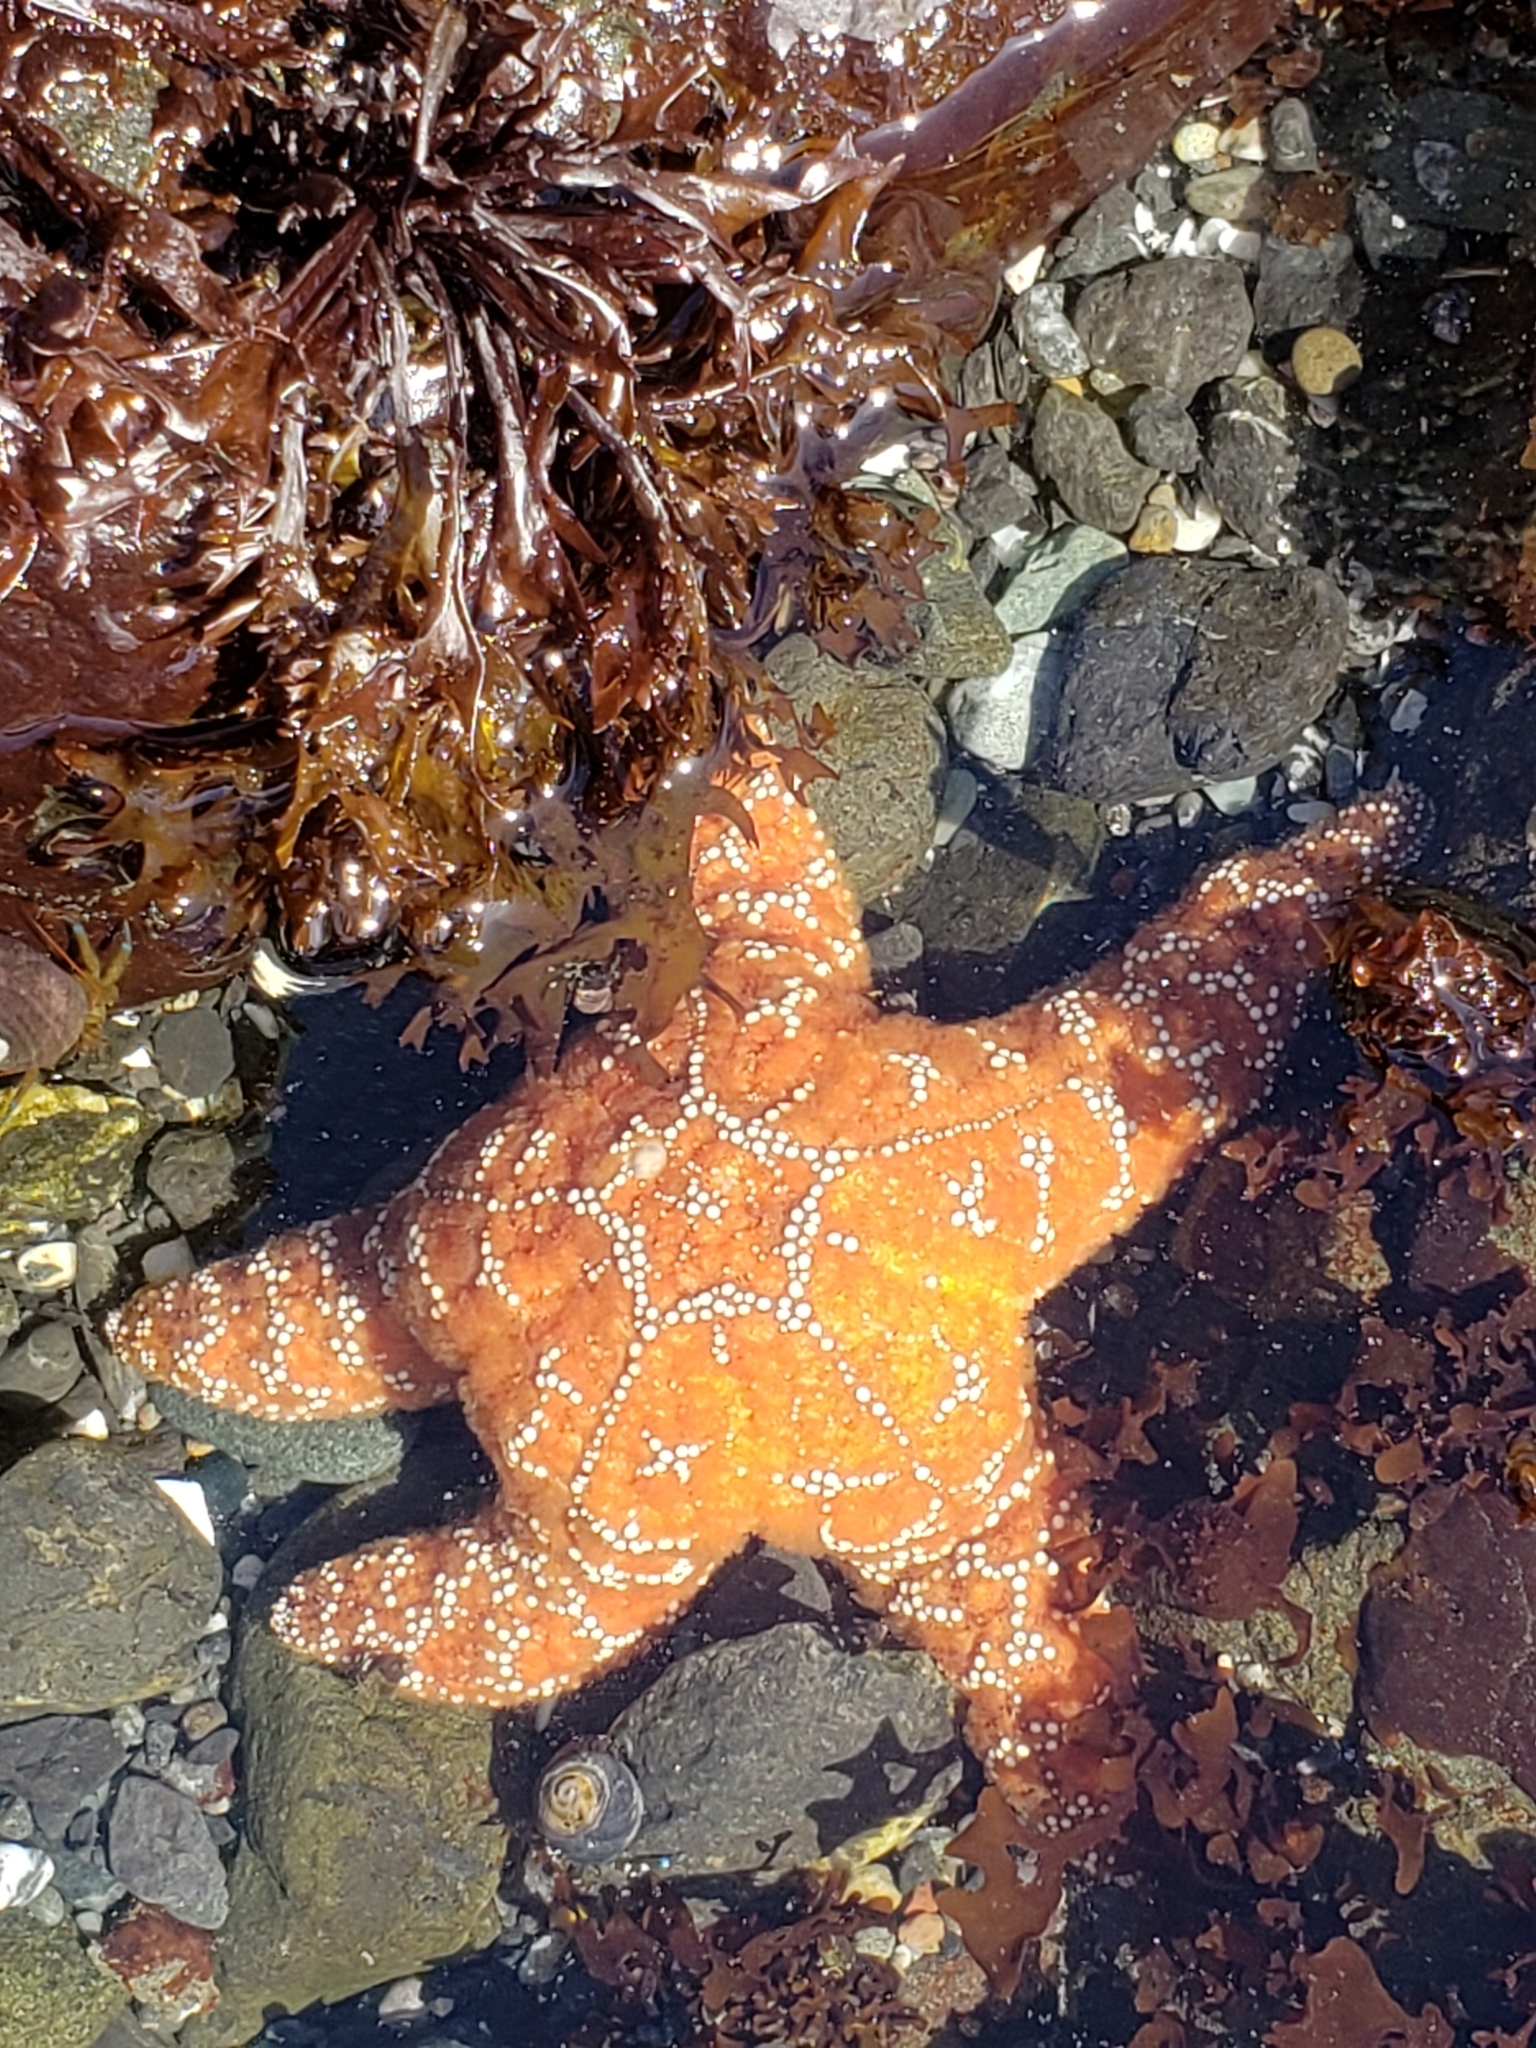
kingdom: Animalia
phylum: Echinodermata
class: Asteroidea
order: Forcipulatida
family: Asteriidae
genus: Pisaster
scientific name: Pisaster ochraceus
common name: Ochre stars
